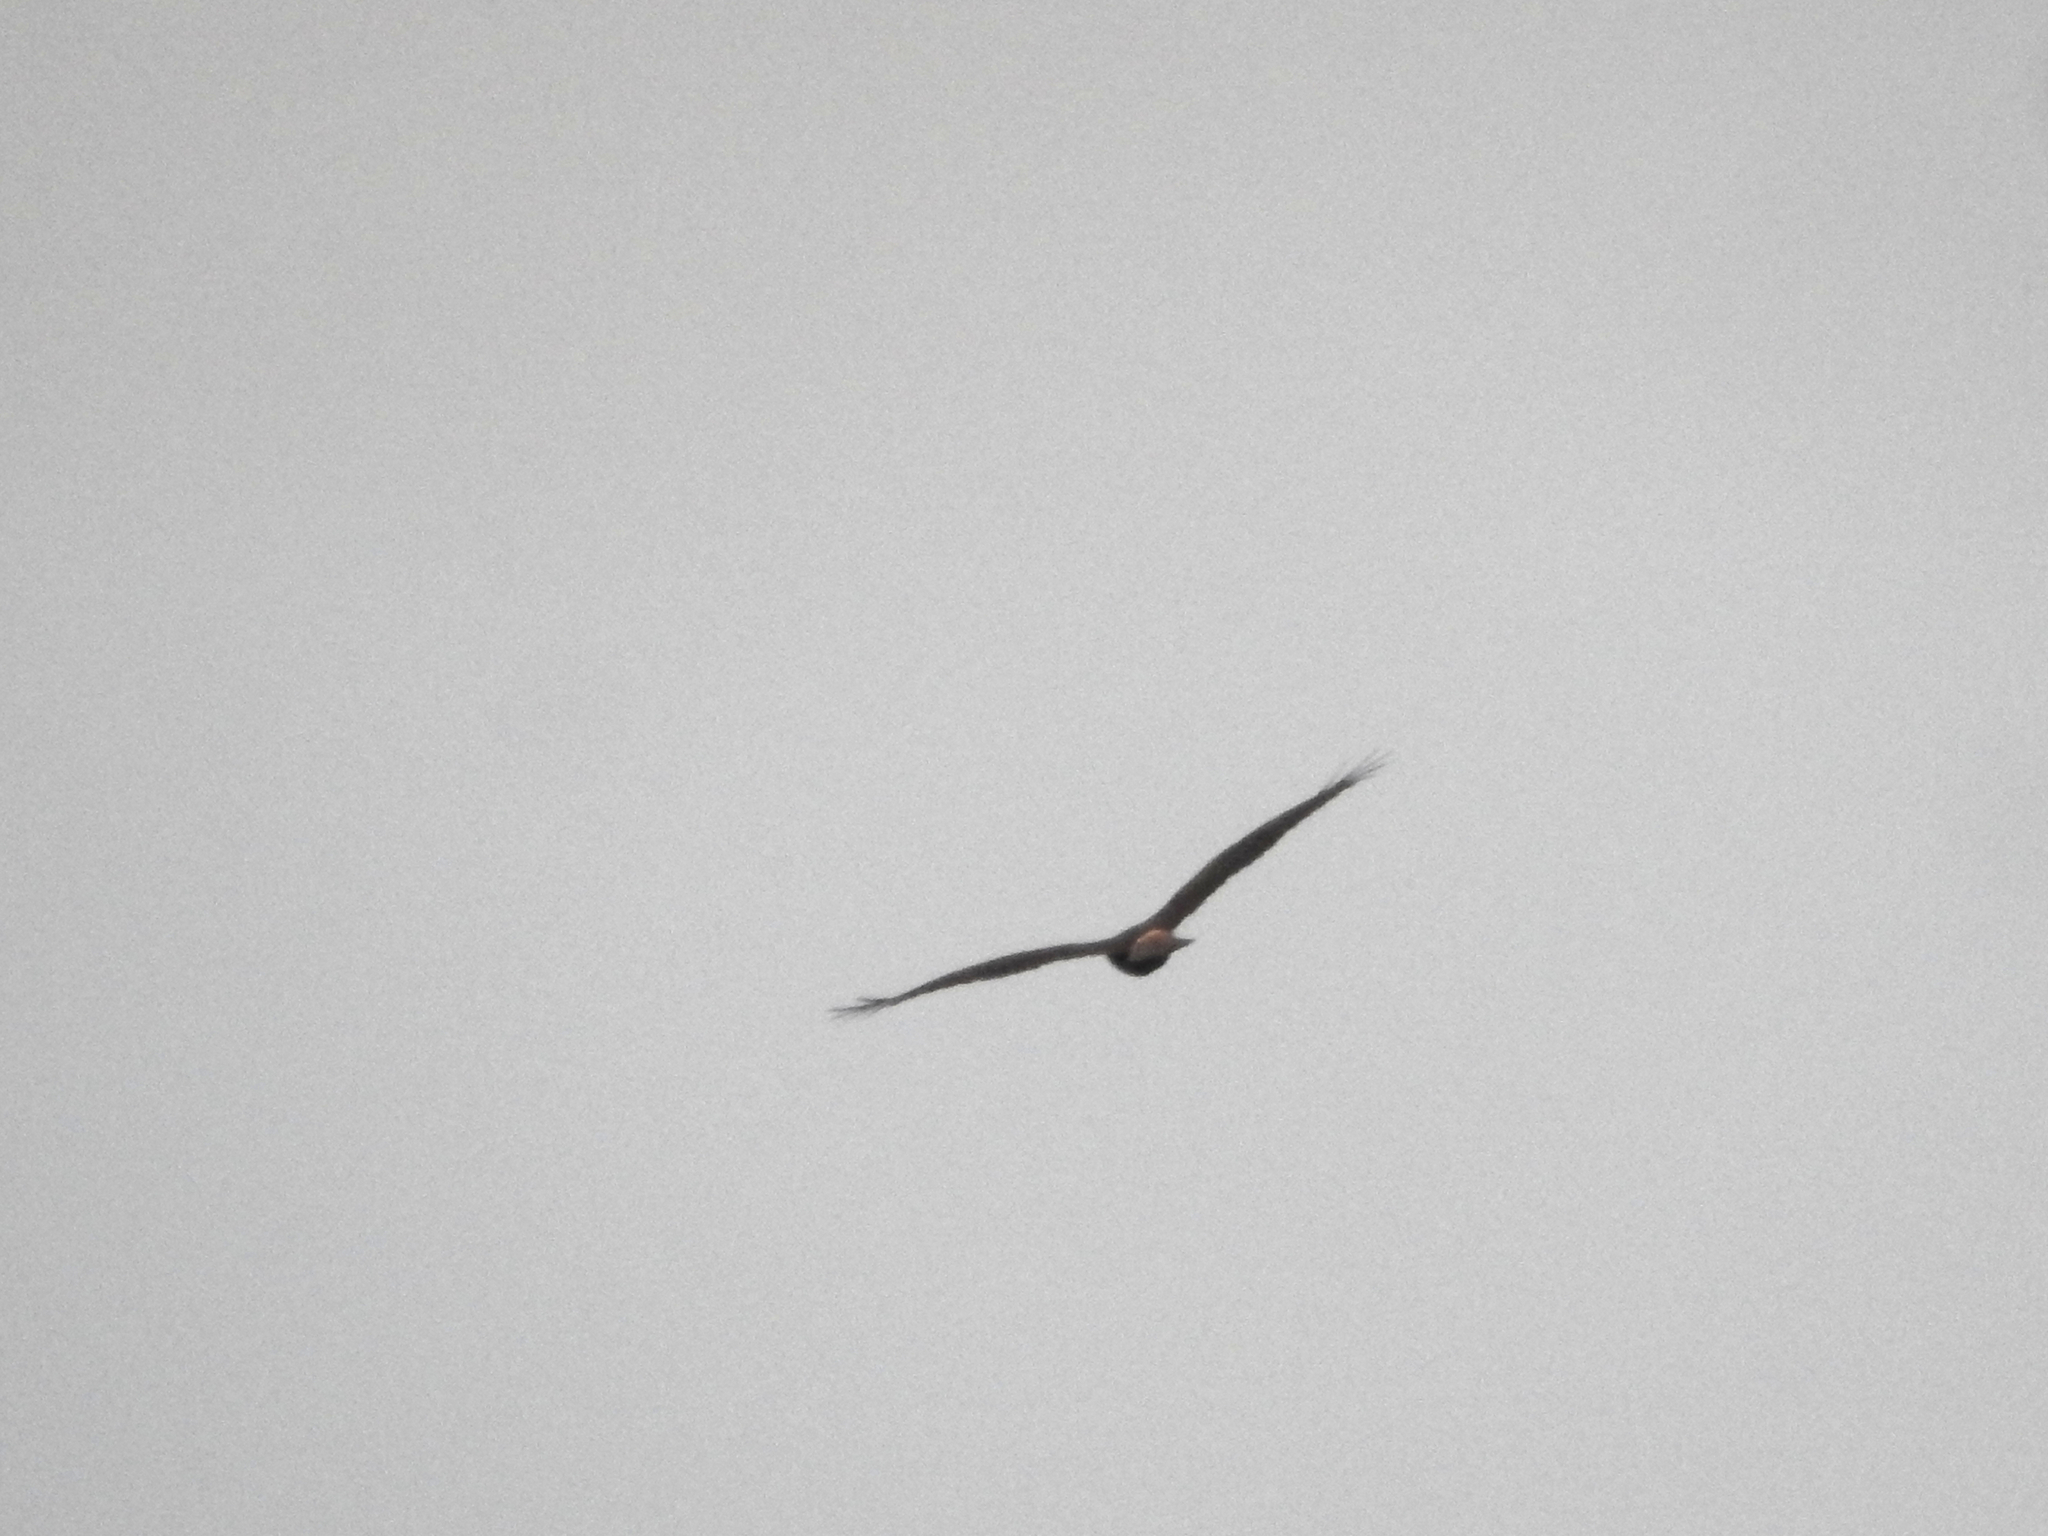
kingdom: Animalia
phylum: Chordata
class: Aves
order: Accipitriformes
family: Accipitridae
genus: Circus
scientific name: Circus approximans
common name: Swamp harrier
